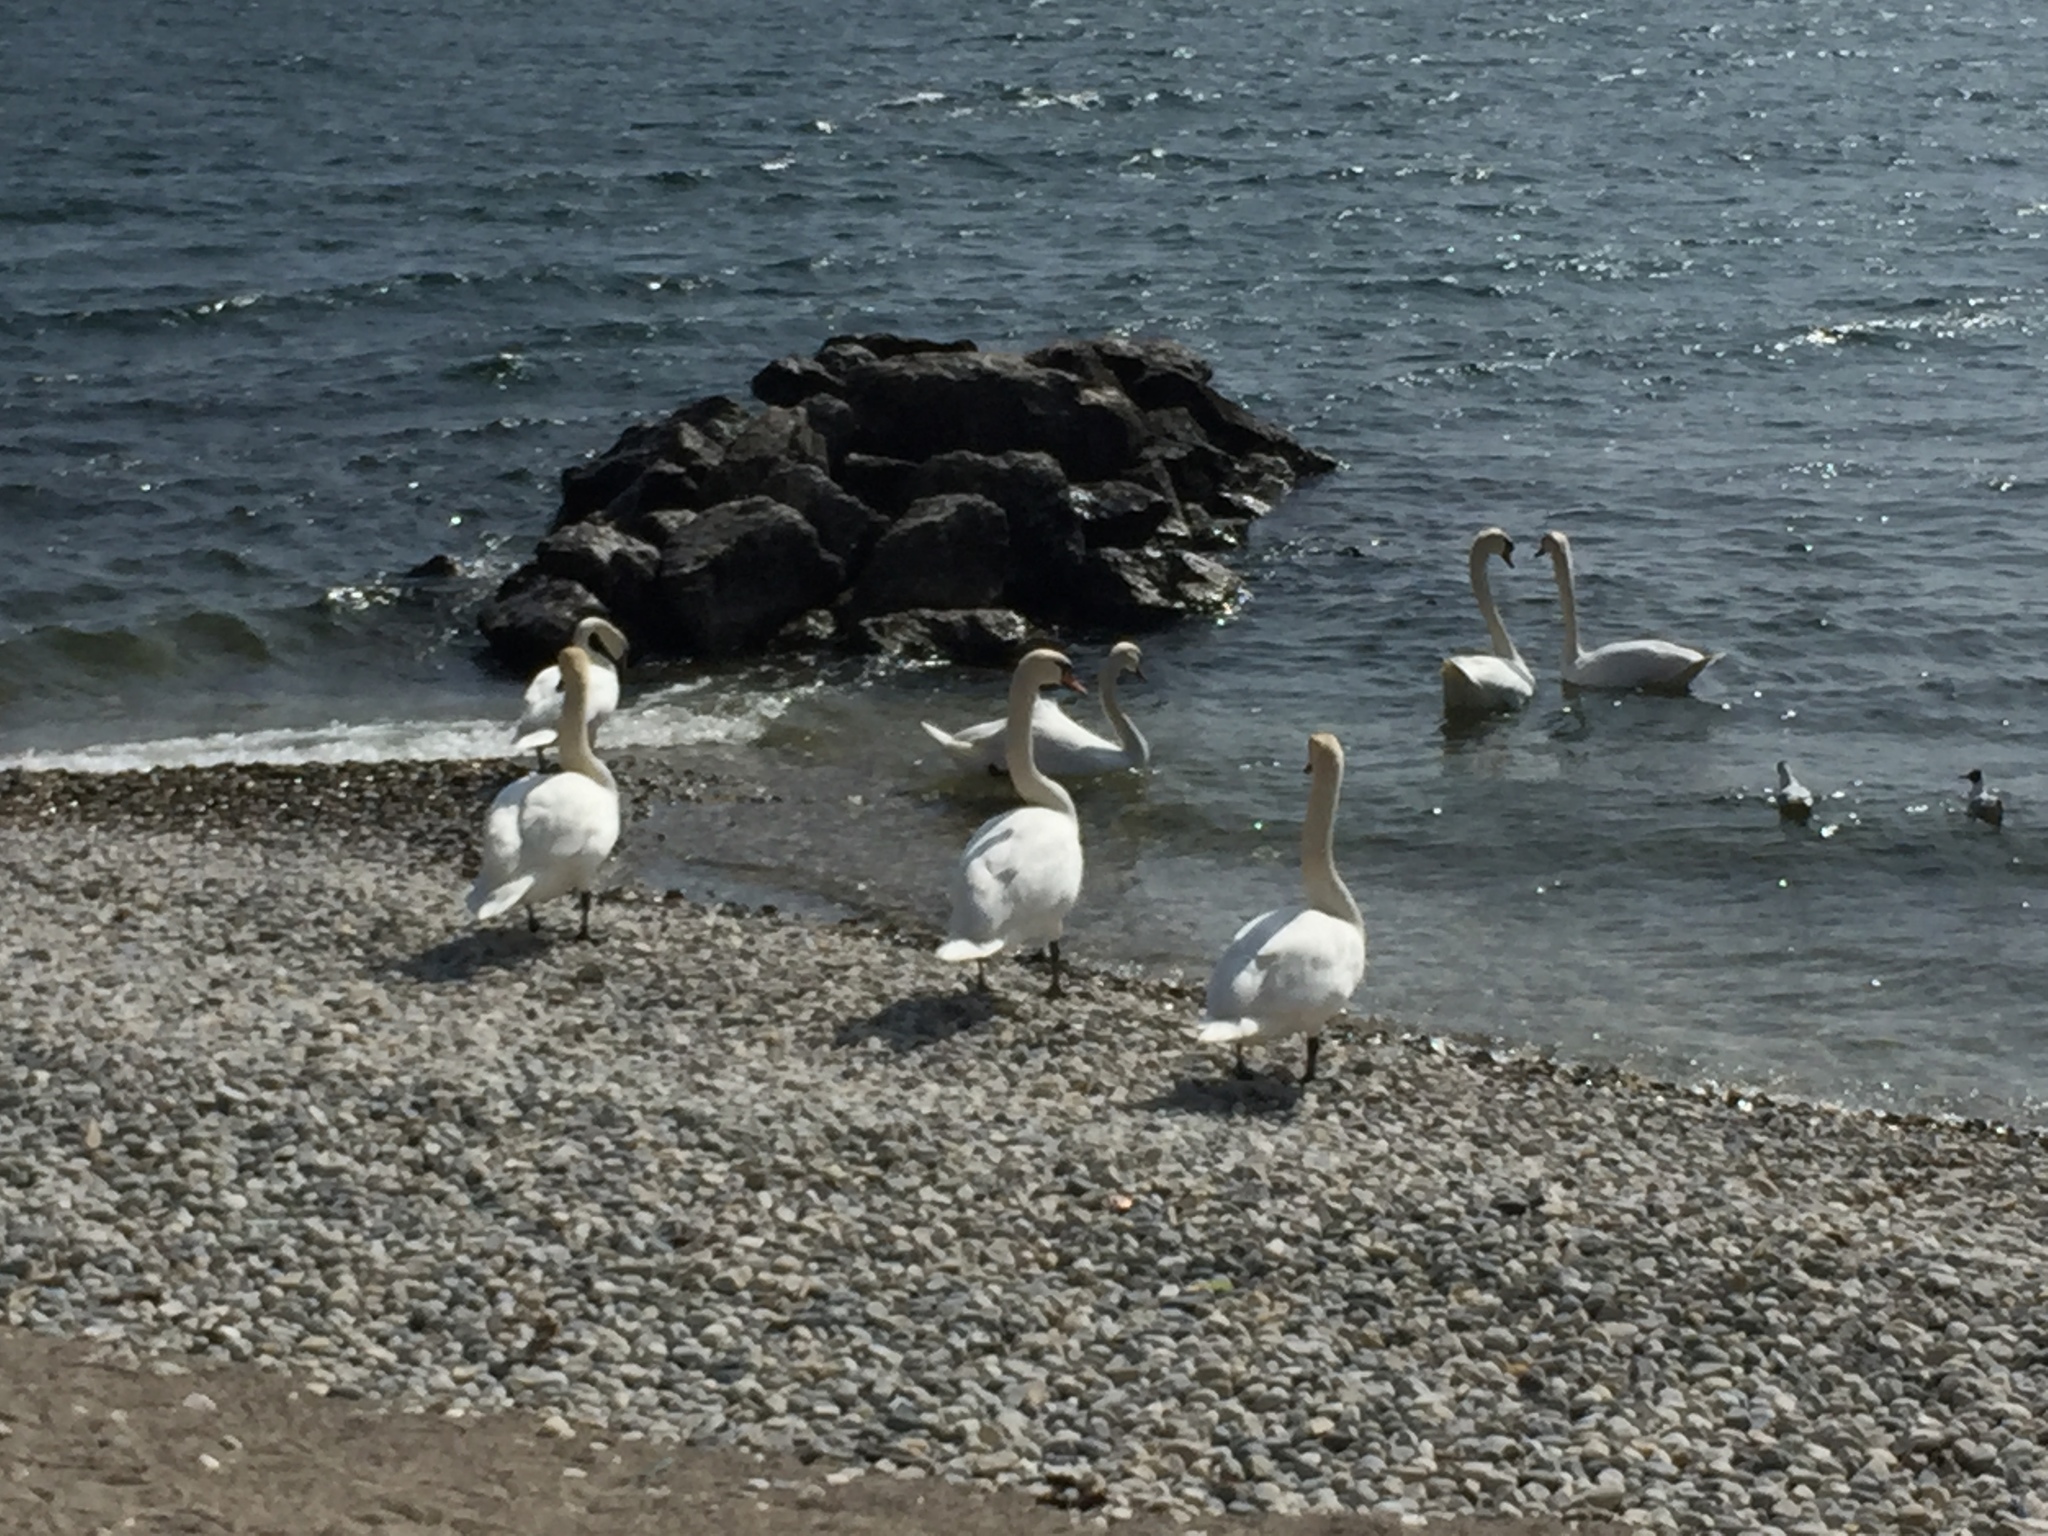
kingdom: Animalia
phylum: Chordata
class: Aves
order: Charadriiformes
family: Laridae
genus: Chroicocephalus
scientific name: Chroicocephalus ridibundus
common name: Black-headed gull
